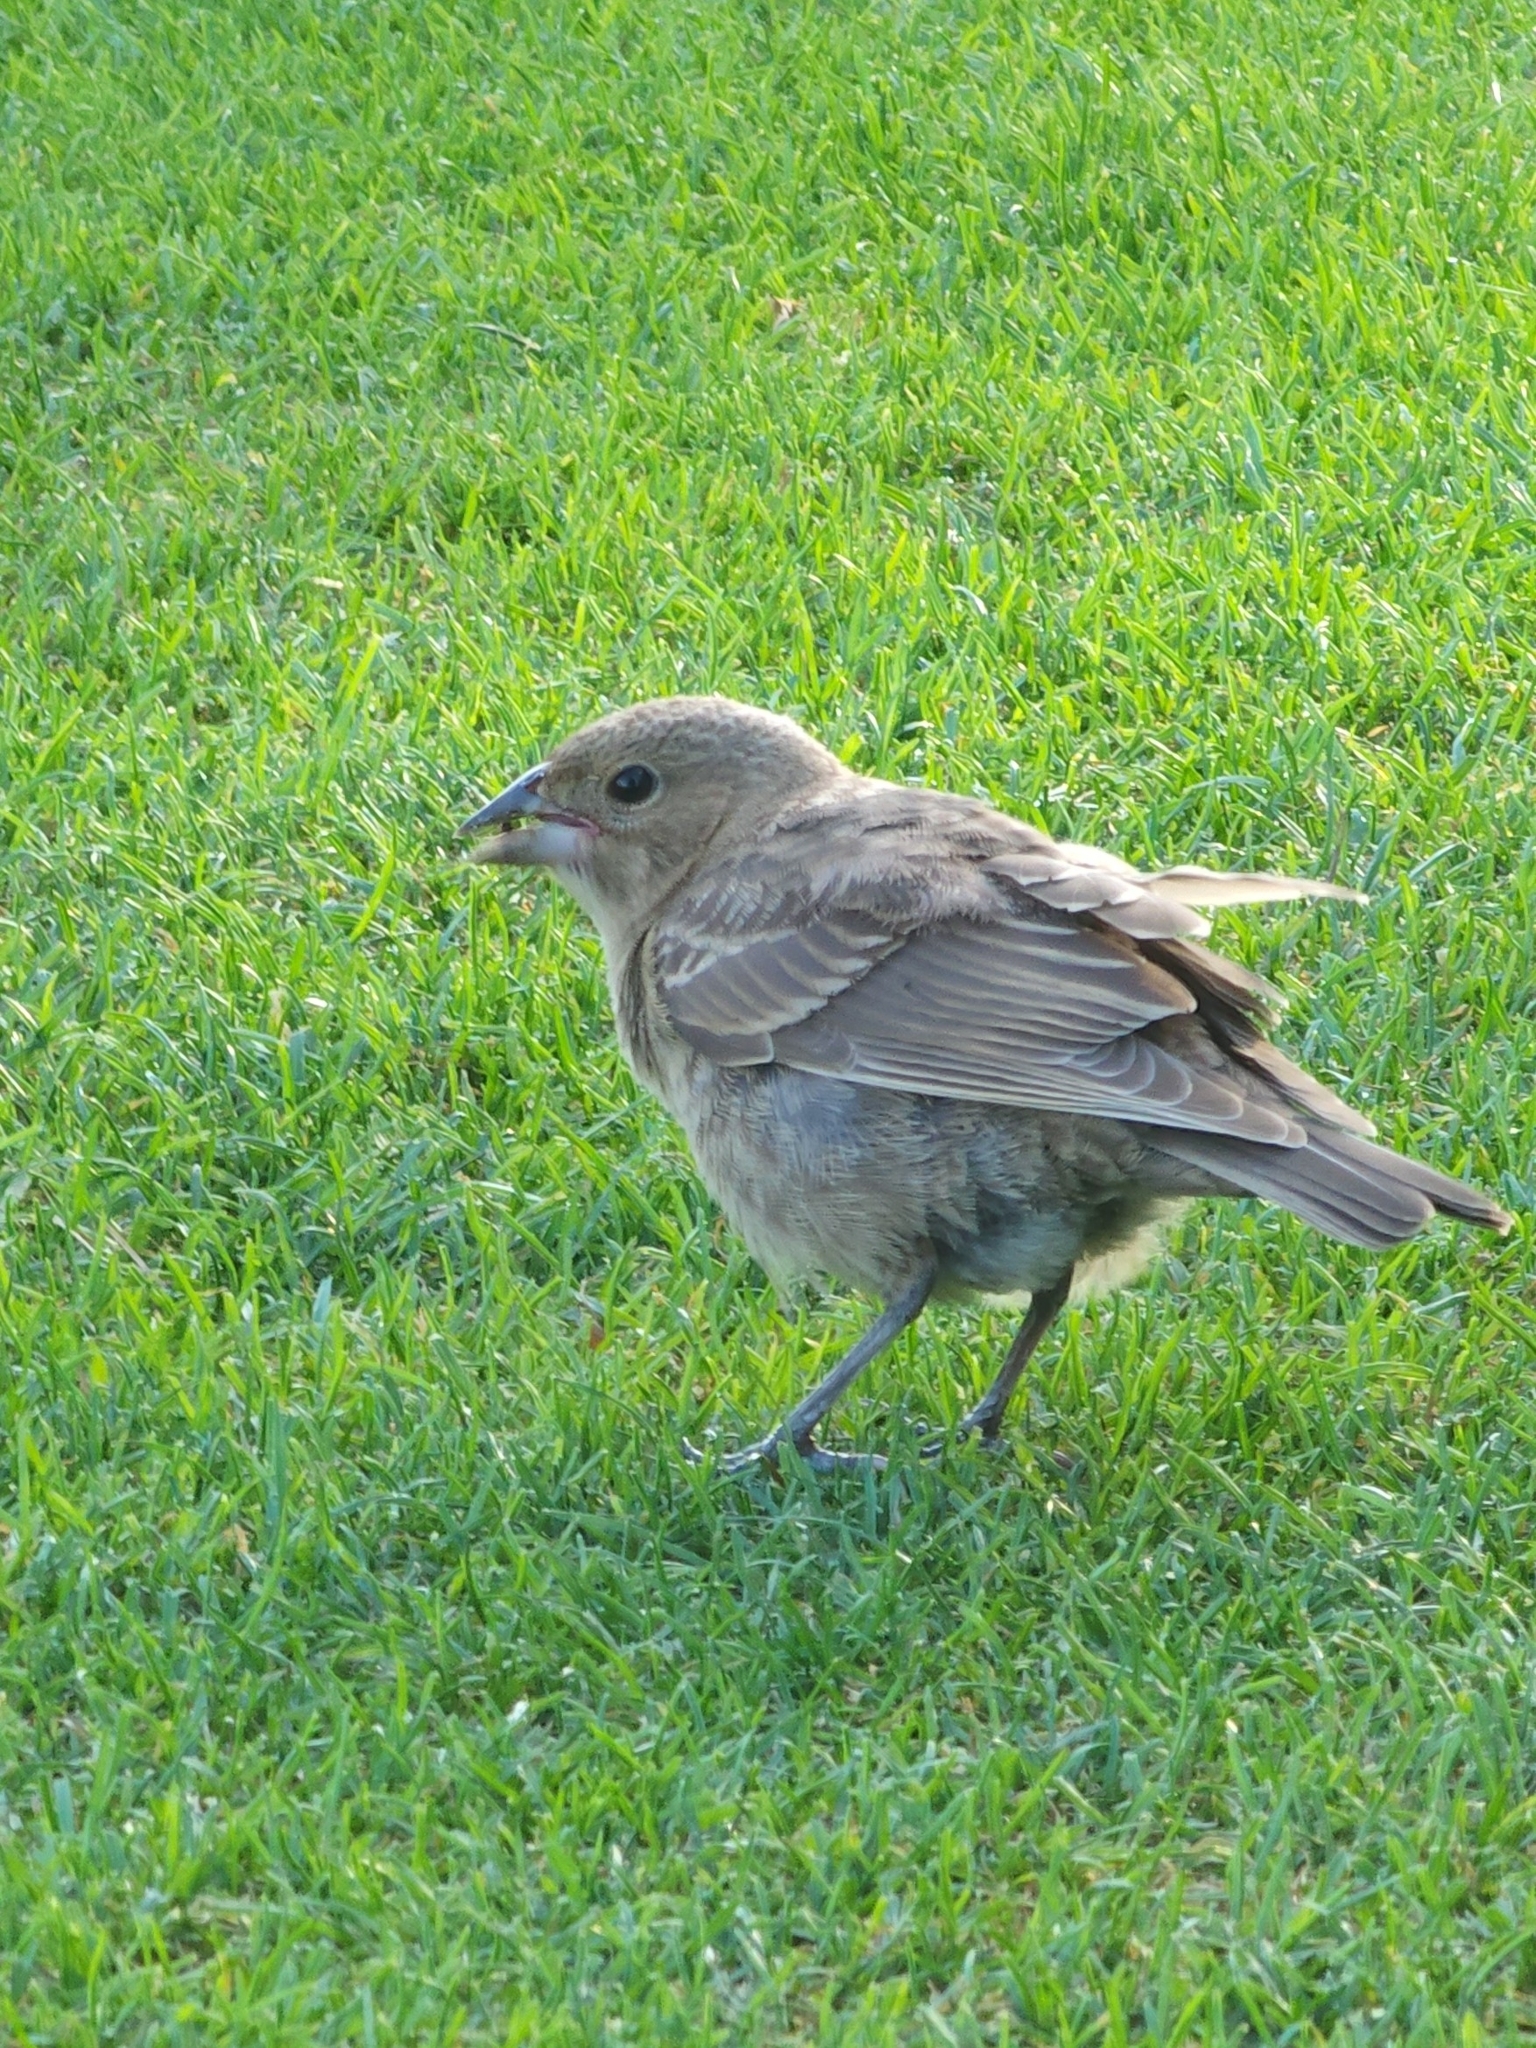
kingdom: Animalia
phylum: Chordata
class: Aves
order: Passeriformes
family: Icteridae
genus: Molothrus
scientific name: Molothrus ater
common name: Brown-headed cowbird
